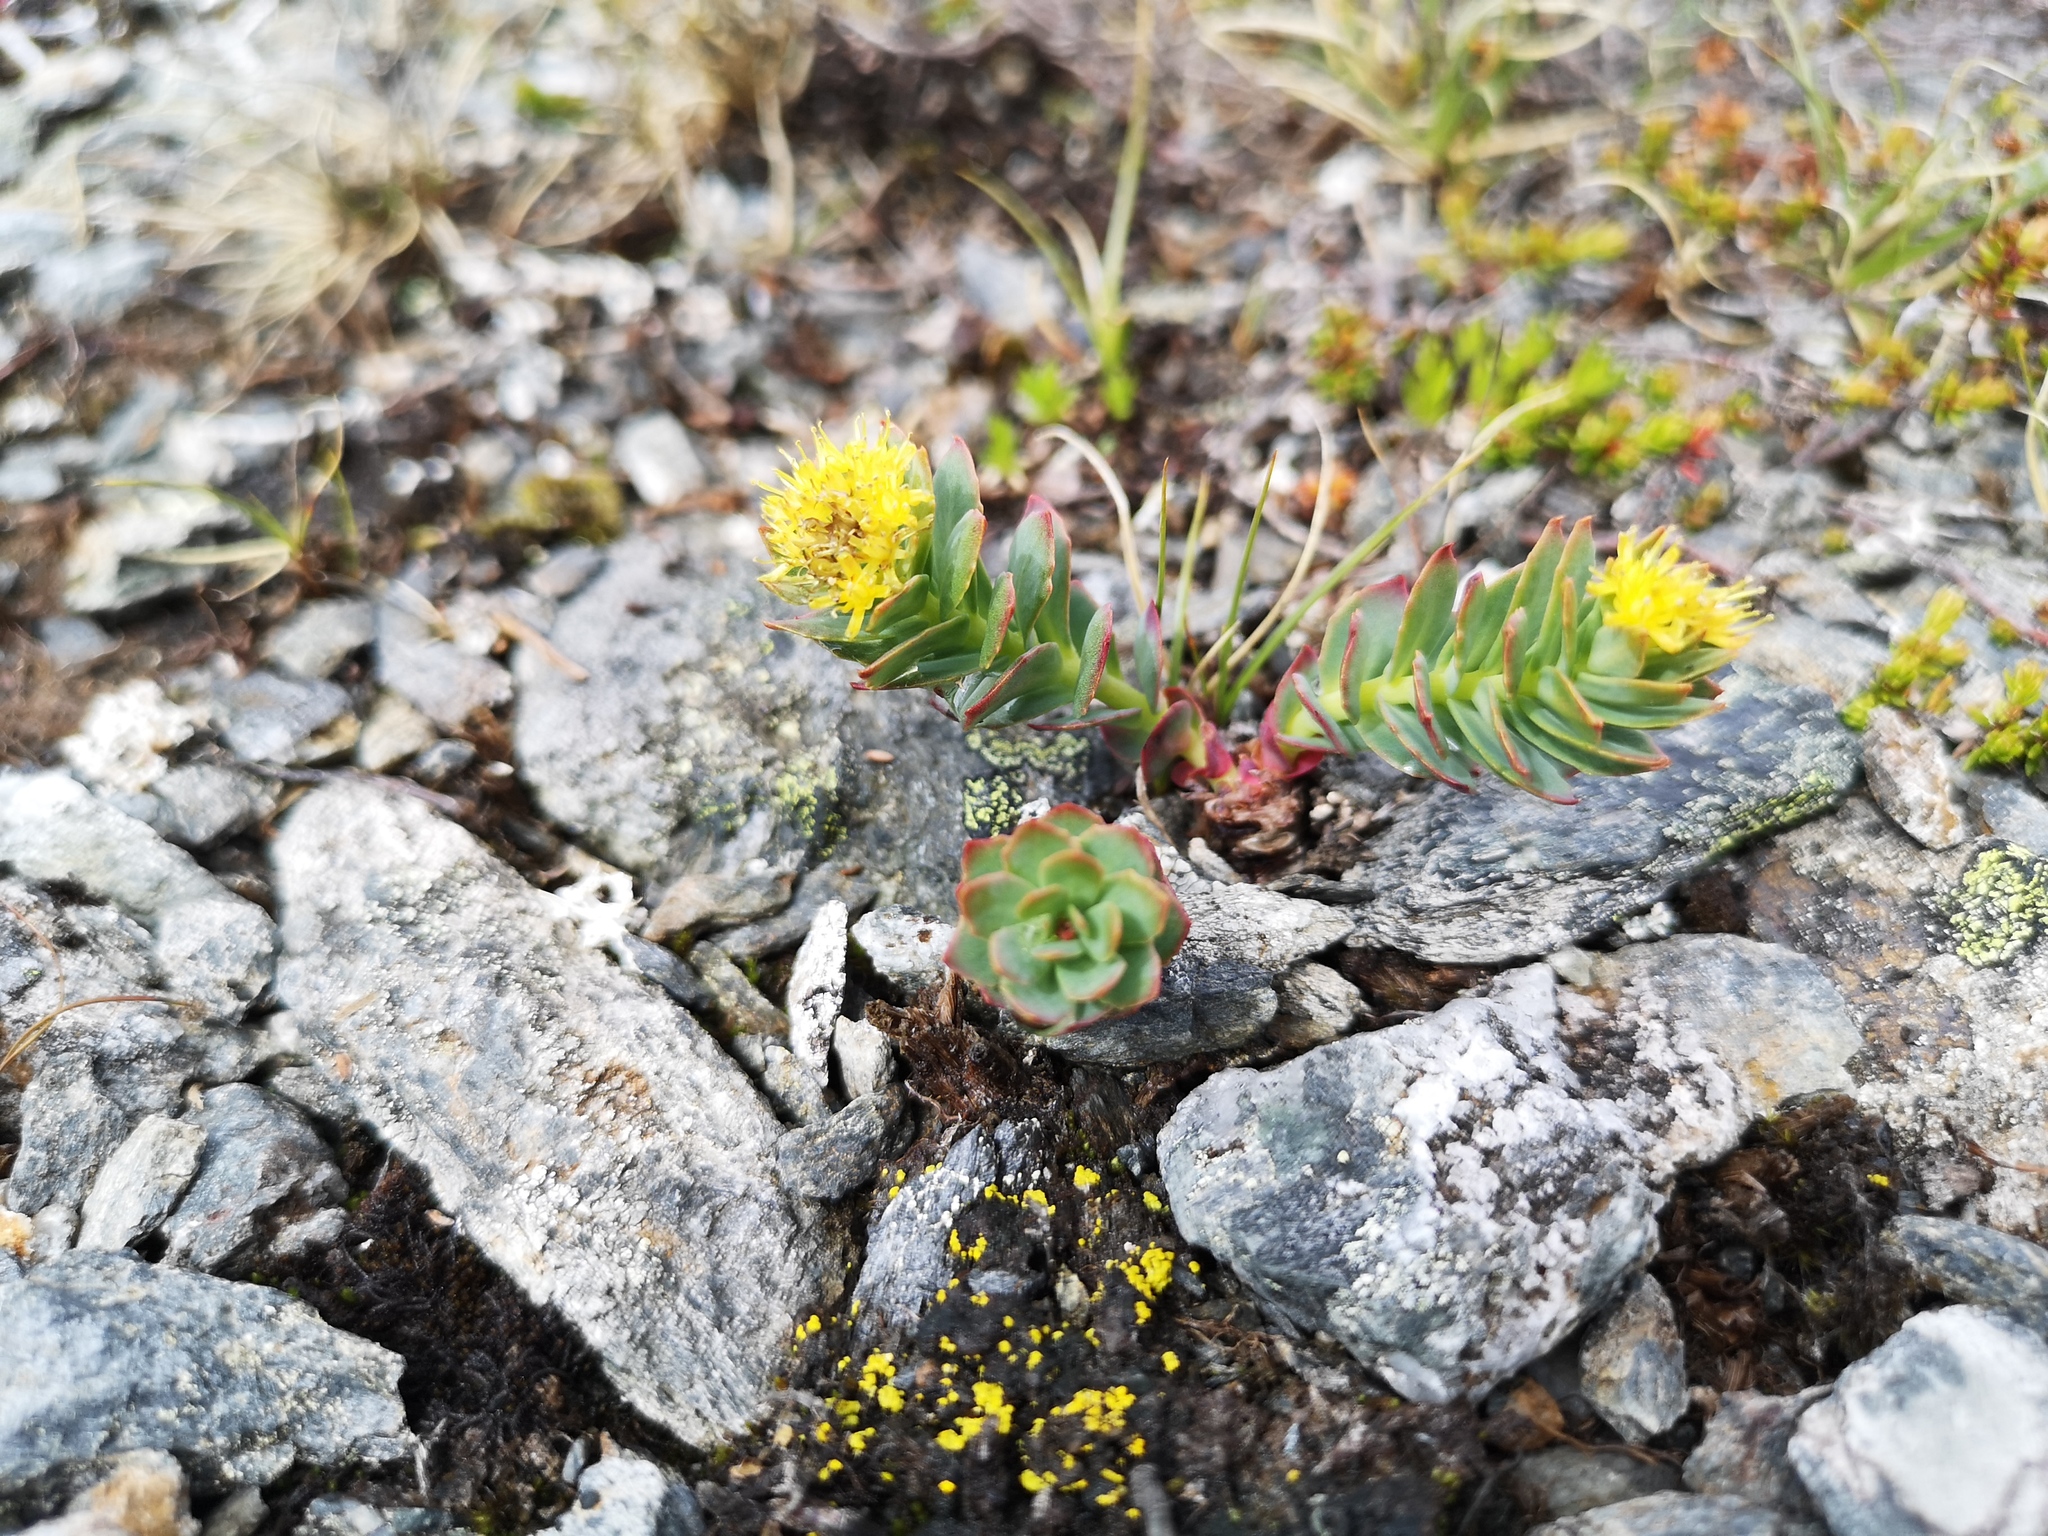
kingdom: Plantae
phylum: Tracheophyta
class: Magnoliopsida
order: Saxifragales
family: Crassulaceae
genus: Rhodiola
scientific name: Rhodiola rosea
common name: Roseroot
